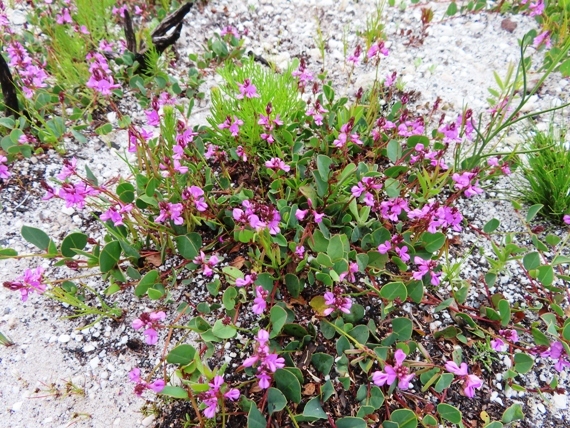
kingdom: Plantae
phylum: Tracheophyta
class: Magnoliopsida
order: Fabales
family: Fabaceae
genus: Indigofera
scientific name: Indigofera ovata
